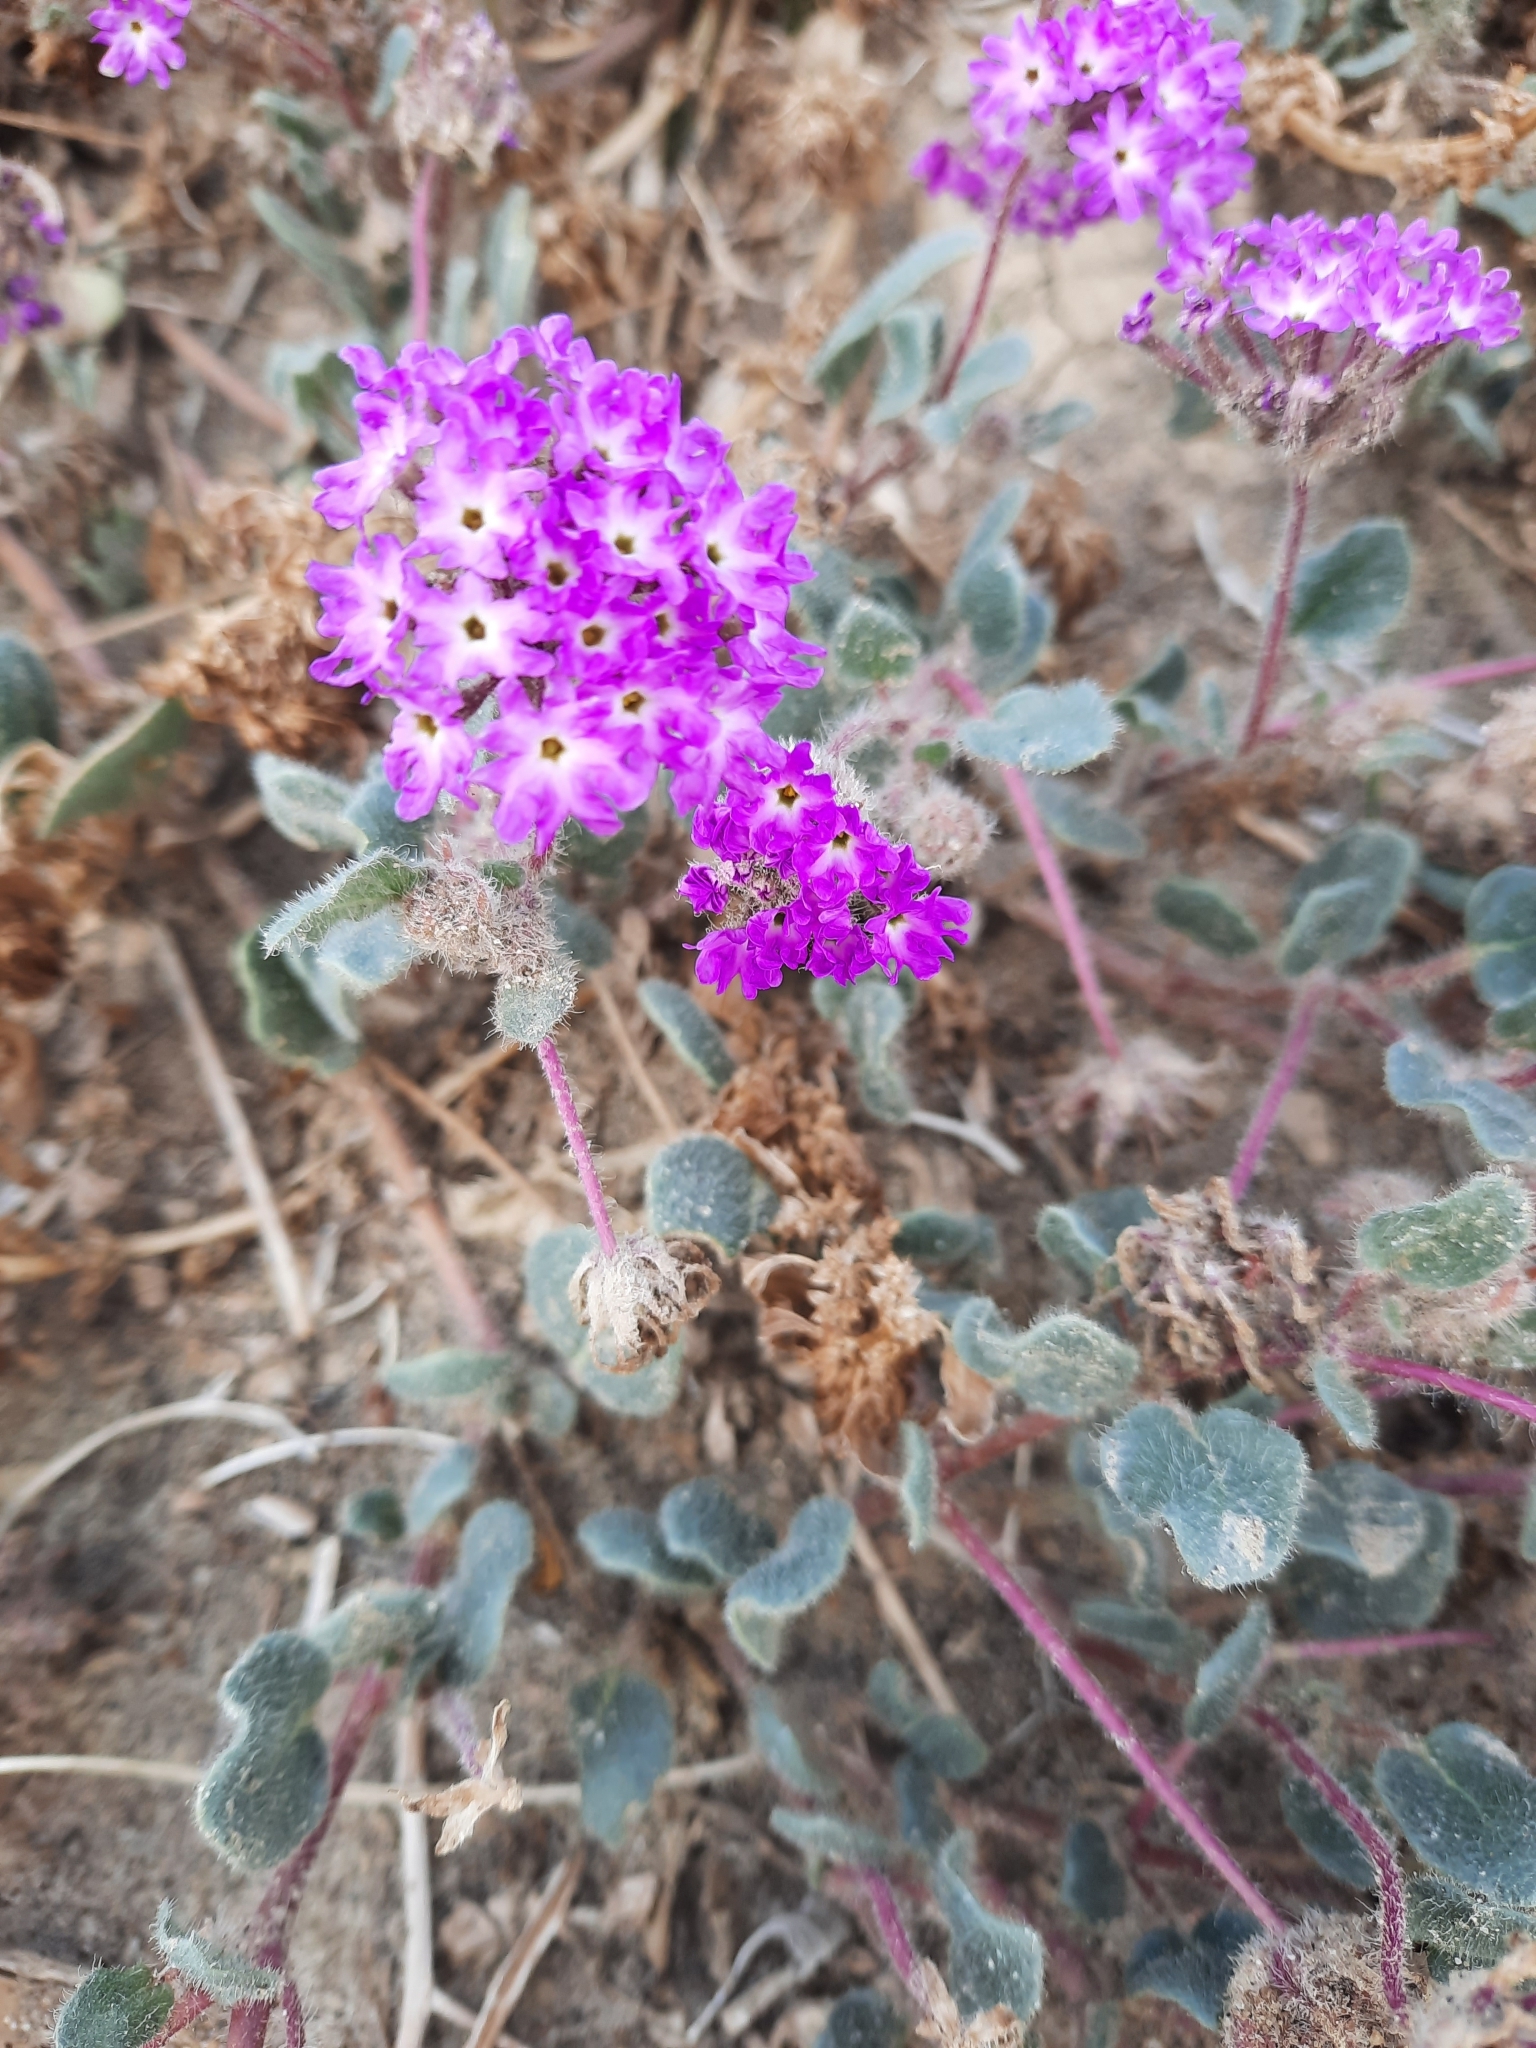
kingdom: Plantae
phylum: Tracheophyta
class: Magnoliopsida
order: Caryophyllales
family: Nyctaginaceae
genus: Abronia
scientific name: Abronia villosa
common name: Desert sand-verbena
